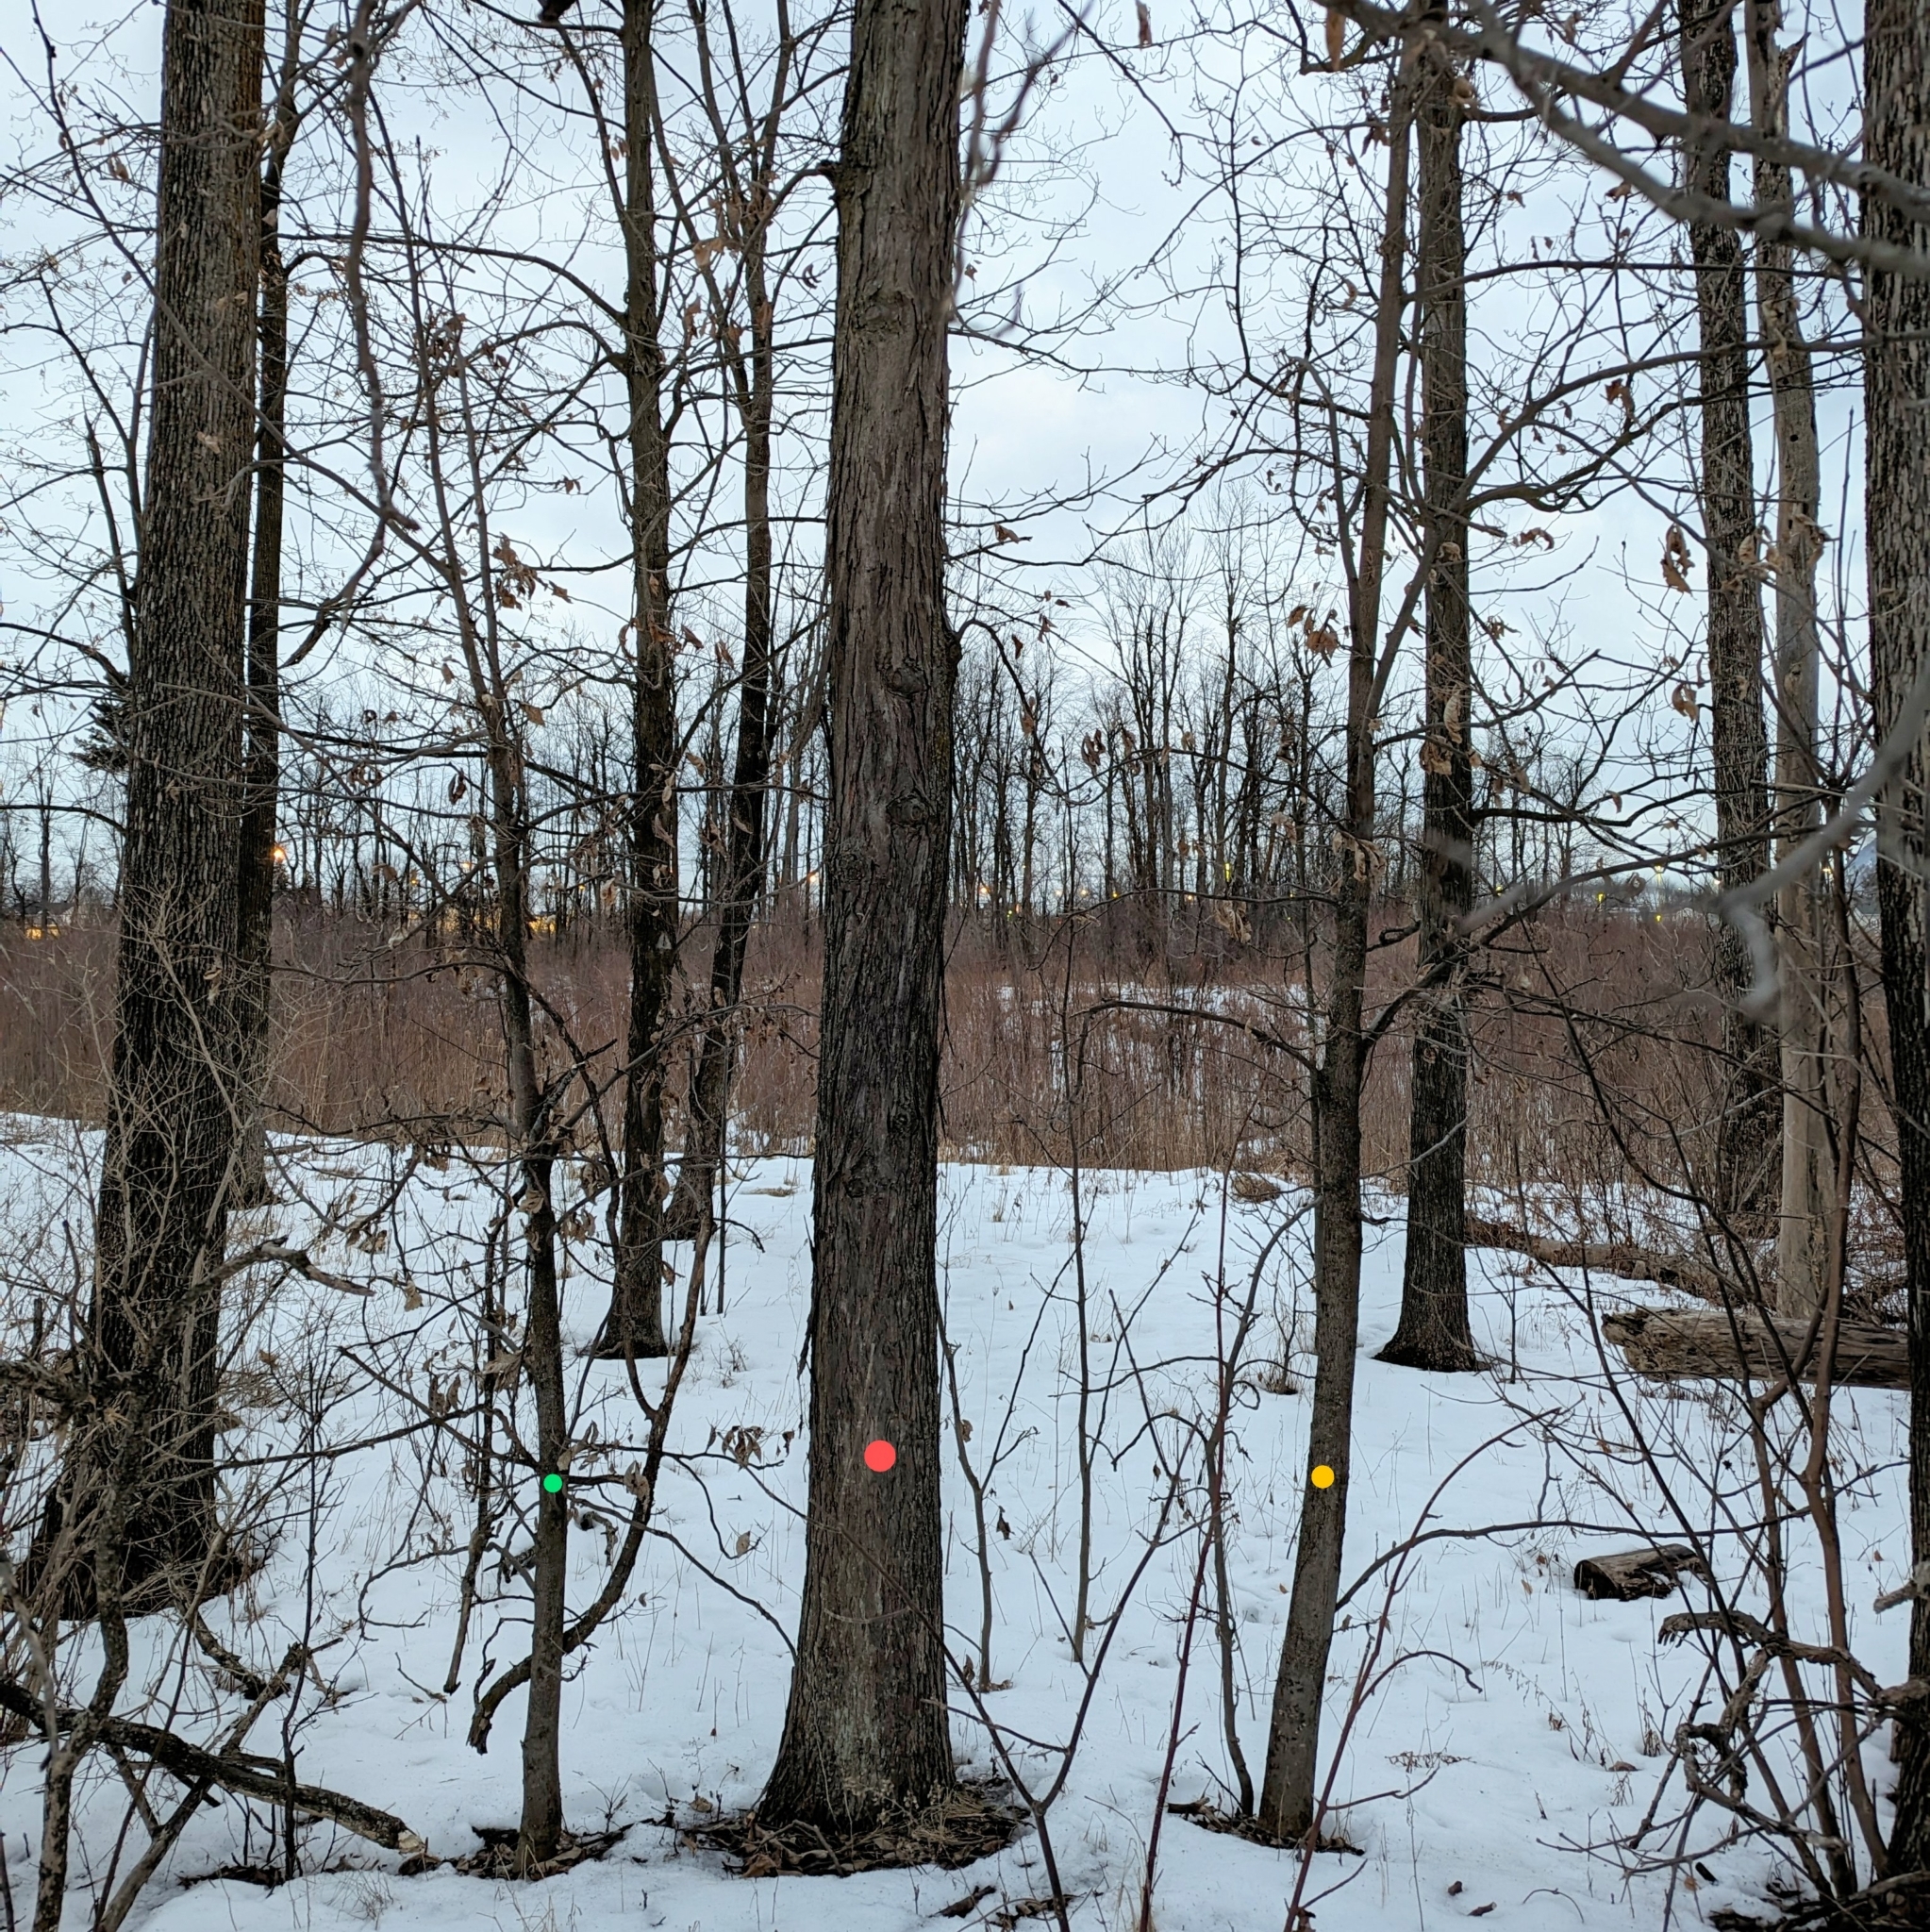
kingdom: Plantae
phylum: Tracheophyta
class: Magnoliopsida
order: Fagales
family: Juglandaceae
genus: Carya
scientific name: Carya ovata
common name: Shagbark hickory
